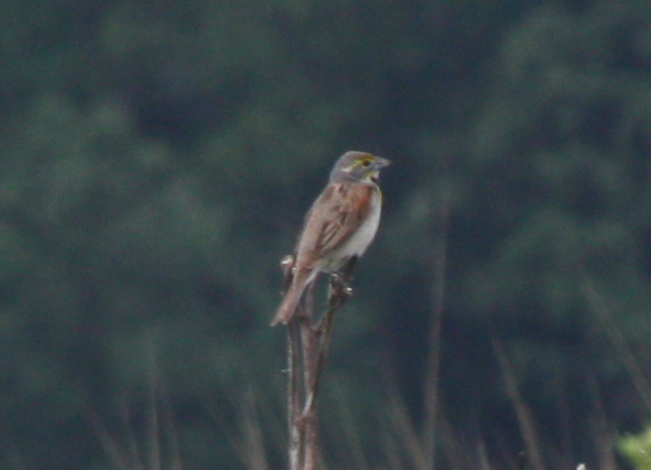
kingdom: Animalia
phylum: Chordata
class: Aves
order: Passeriformes
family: Cardinalidae
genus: Spiza
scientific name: Spiza americana
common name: Dickcissel
